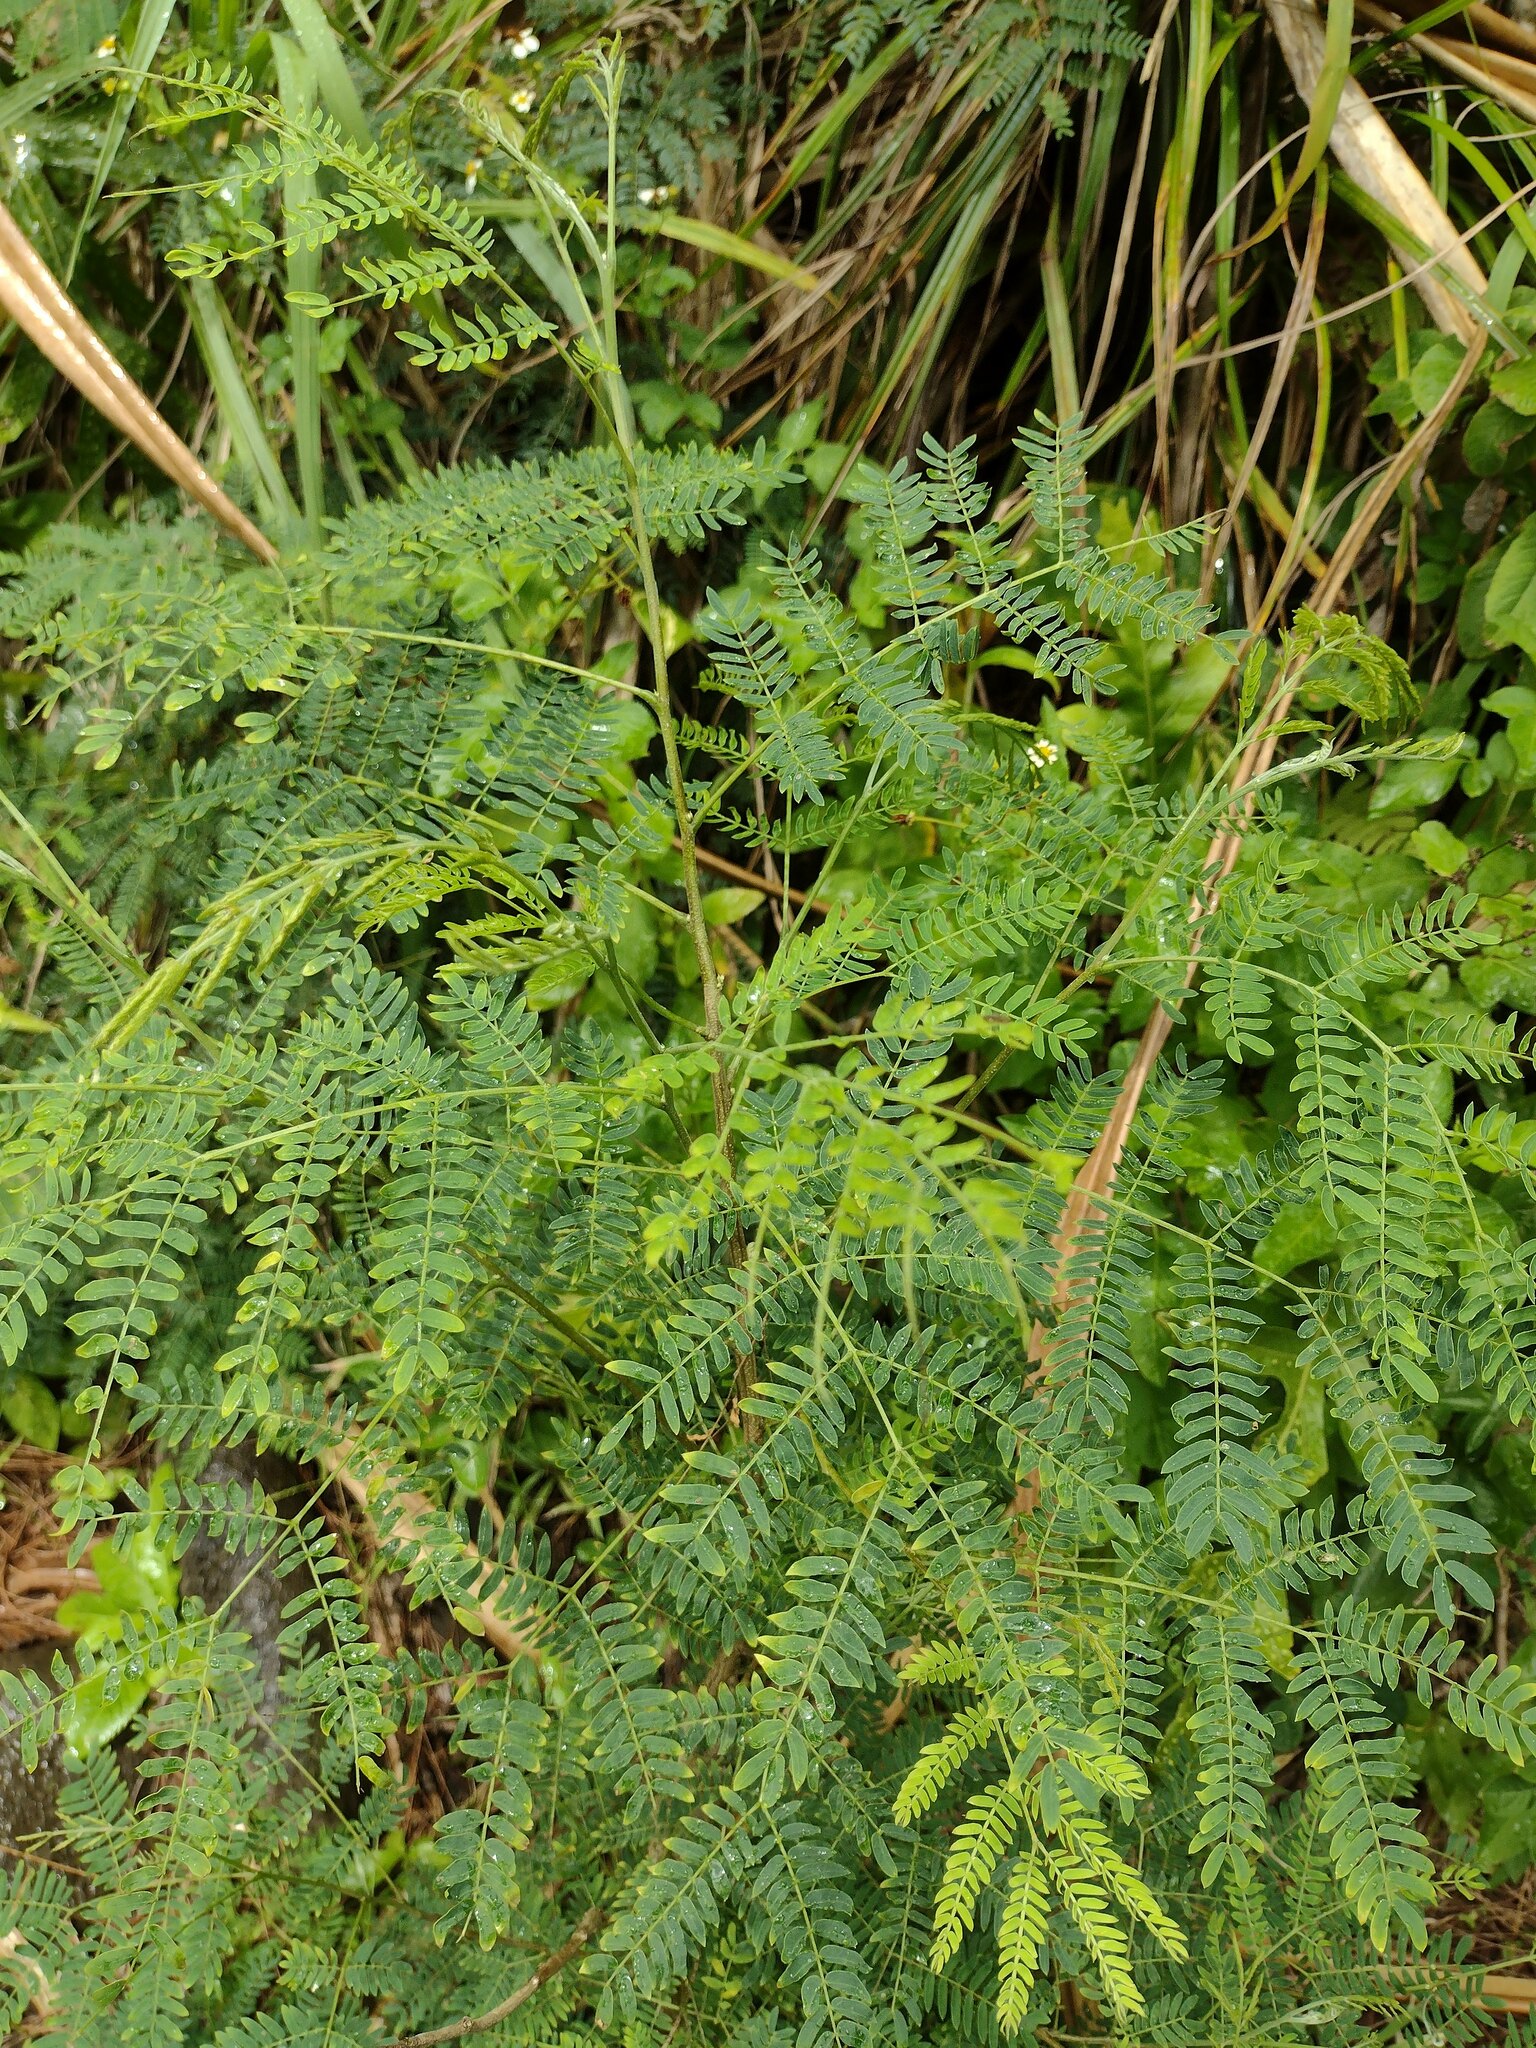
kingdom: Plantae
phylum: Tracheophyta
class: Magnoliopsida
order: Fabales
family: Fabaceae
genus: Leucaena
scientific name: Leucaena leucocephala
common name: White leadtree
